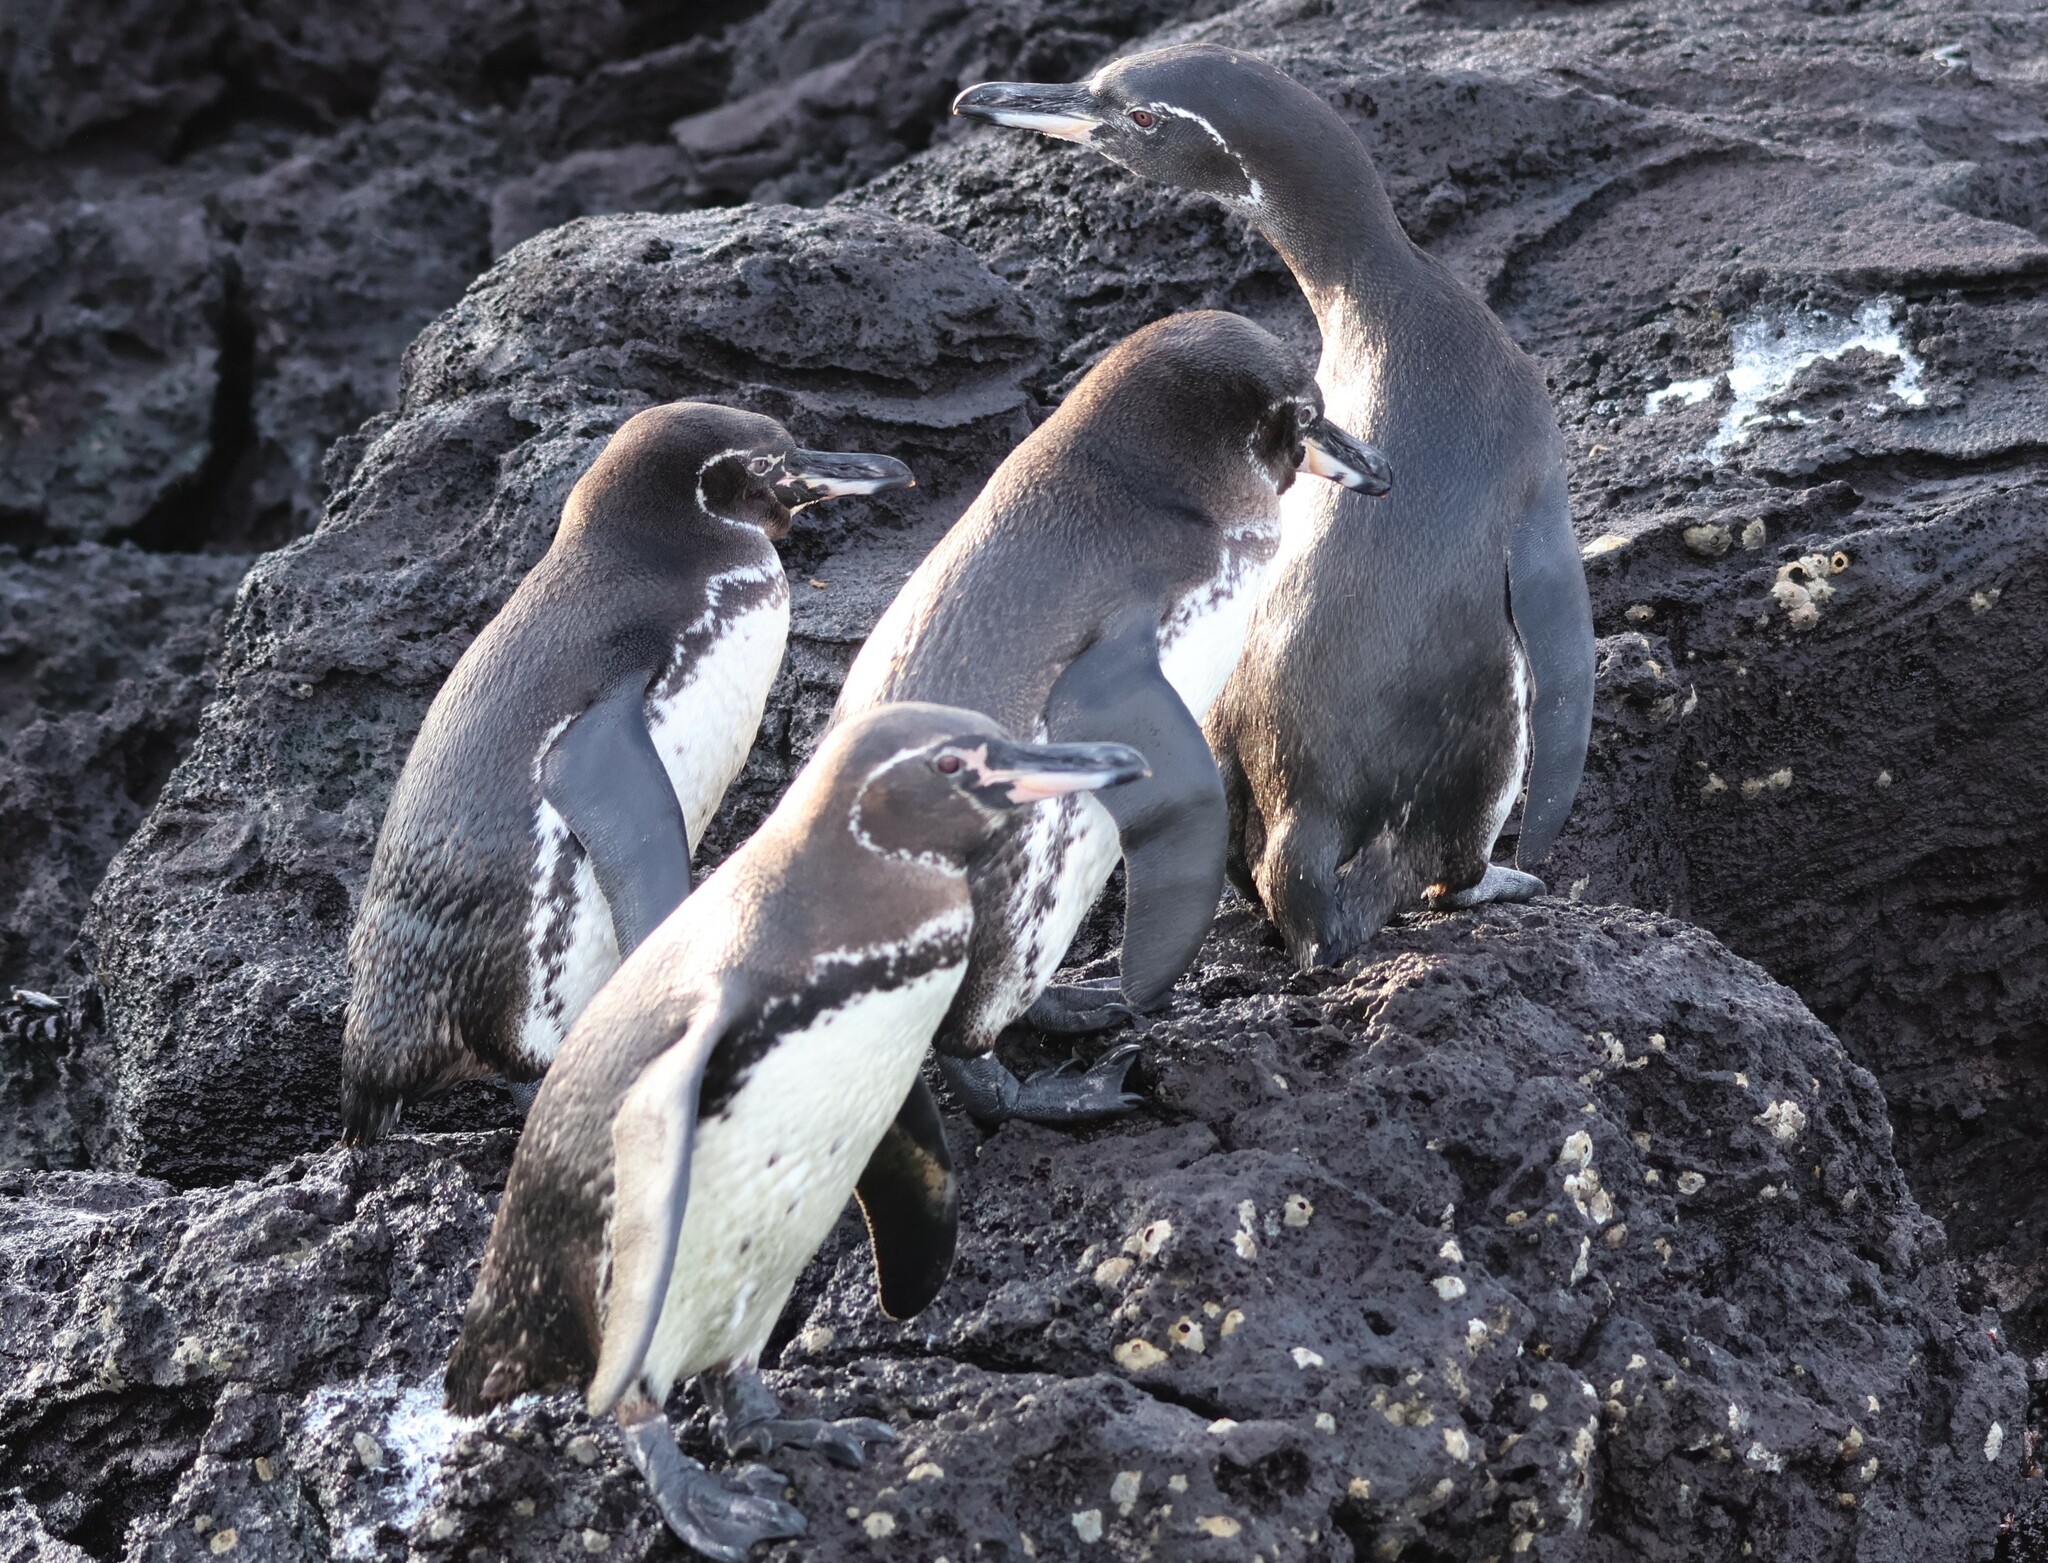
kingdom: Animalia
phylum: Chordata
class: Aves
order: Sphenisciformes
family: Spheniscidae
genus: Spheniscus
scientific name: Spheniscus mendiculus
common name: Galapagos penguin
